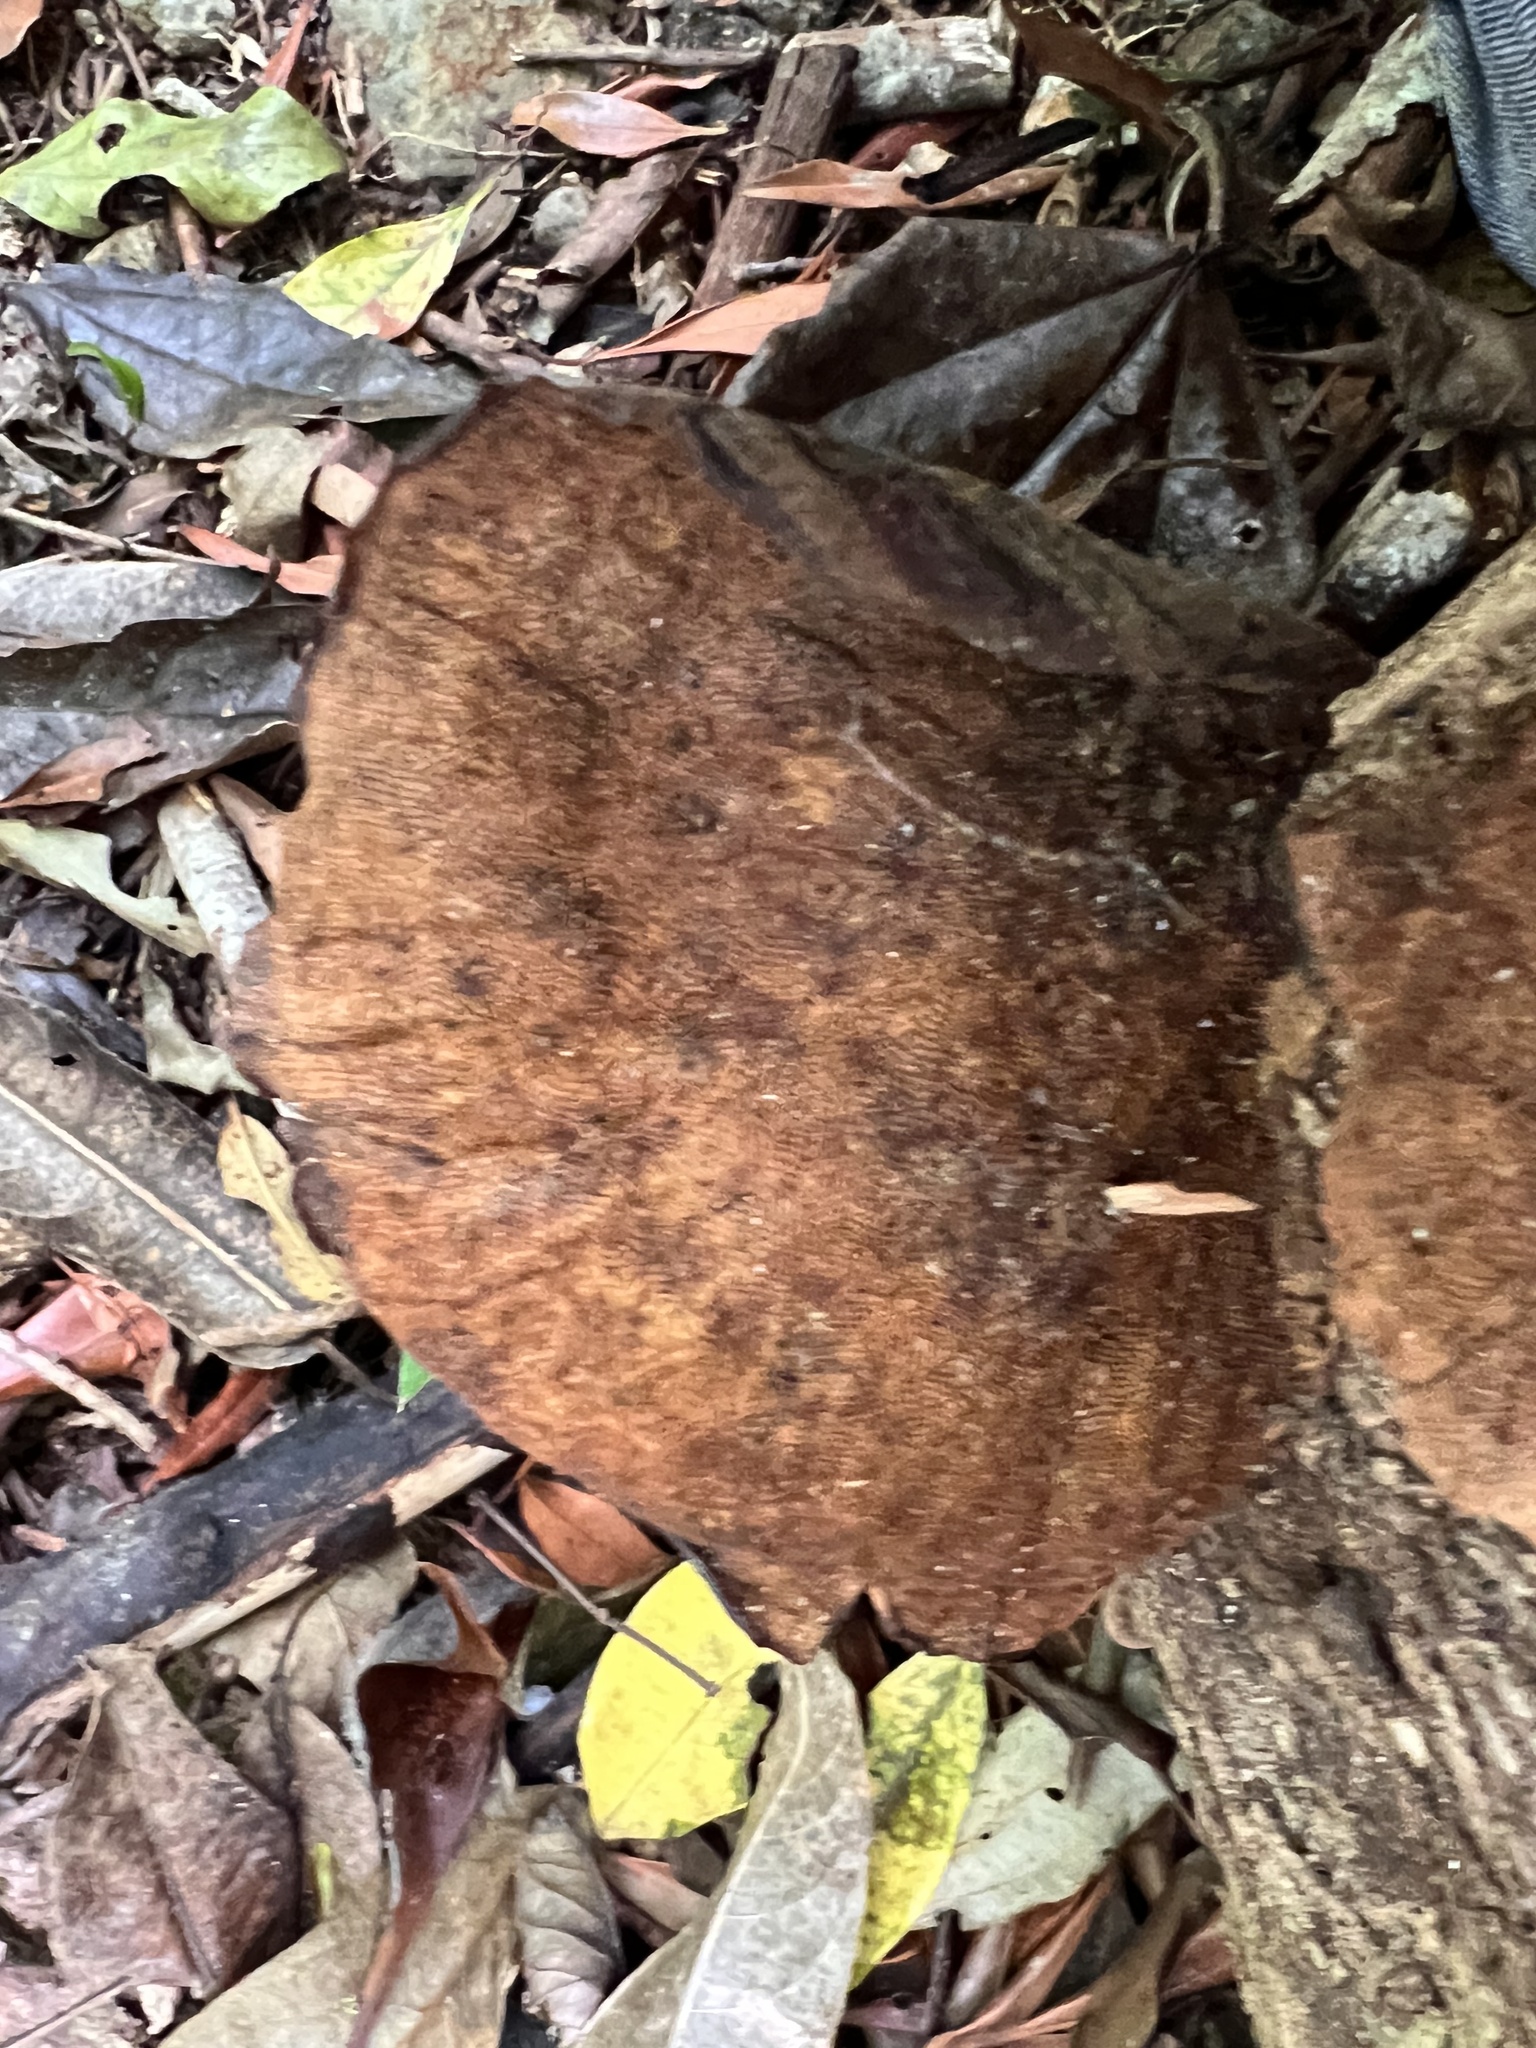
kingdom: Fungi
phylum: Basidiomycota
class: Agaricomycetes
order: Polyporales
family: Polyporaceae
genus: Pseudofavolus
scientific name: Pseudofavolus tenuis
